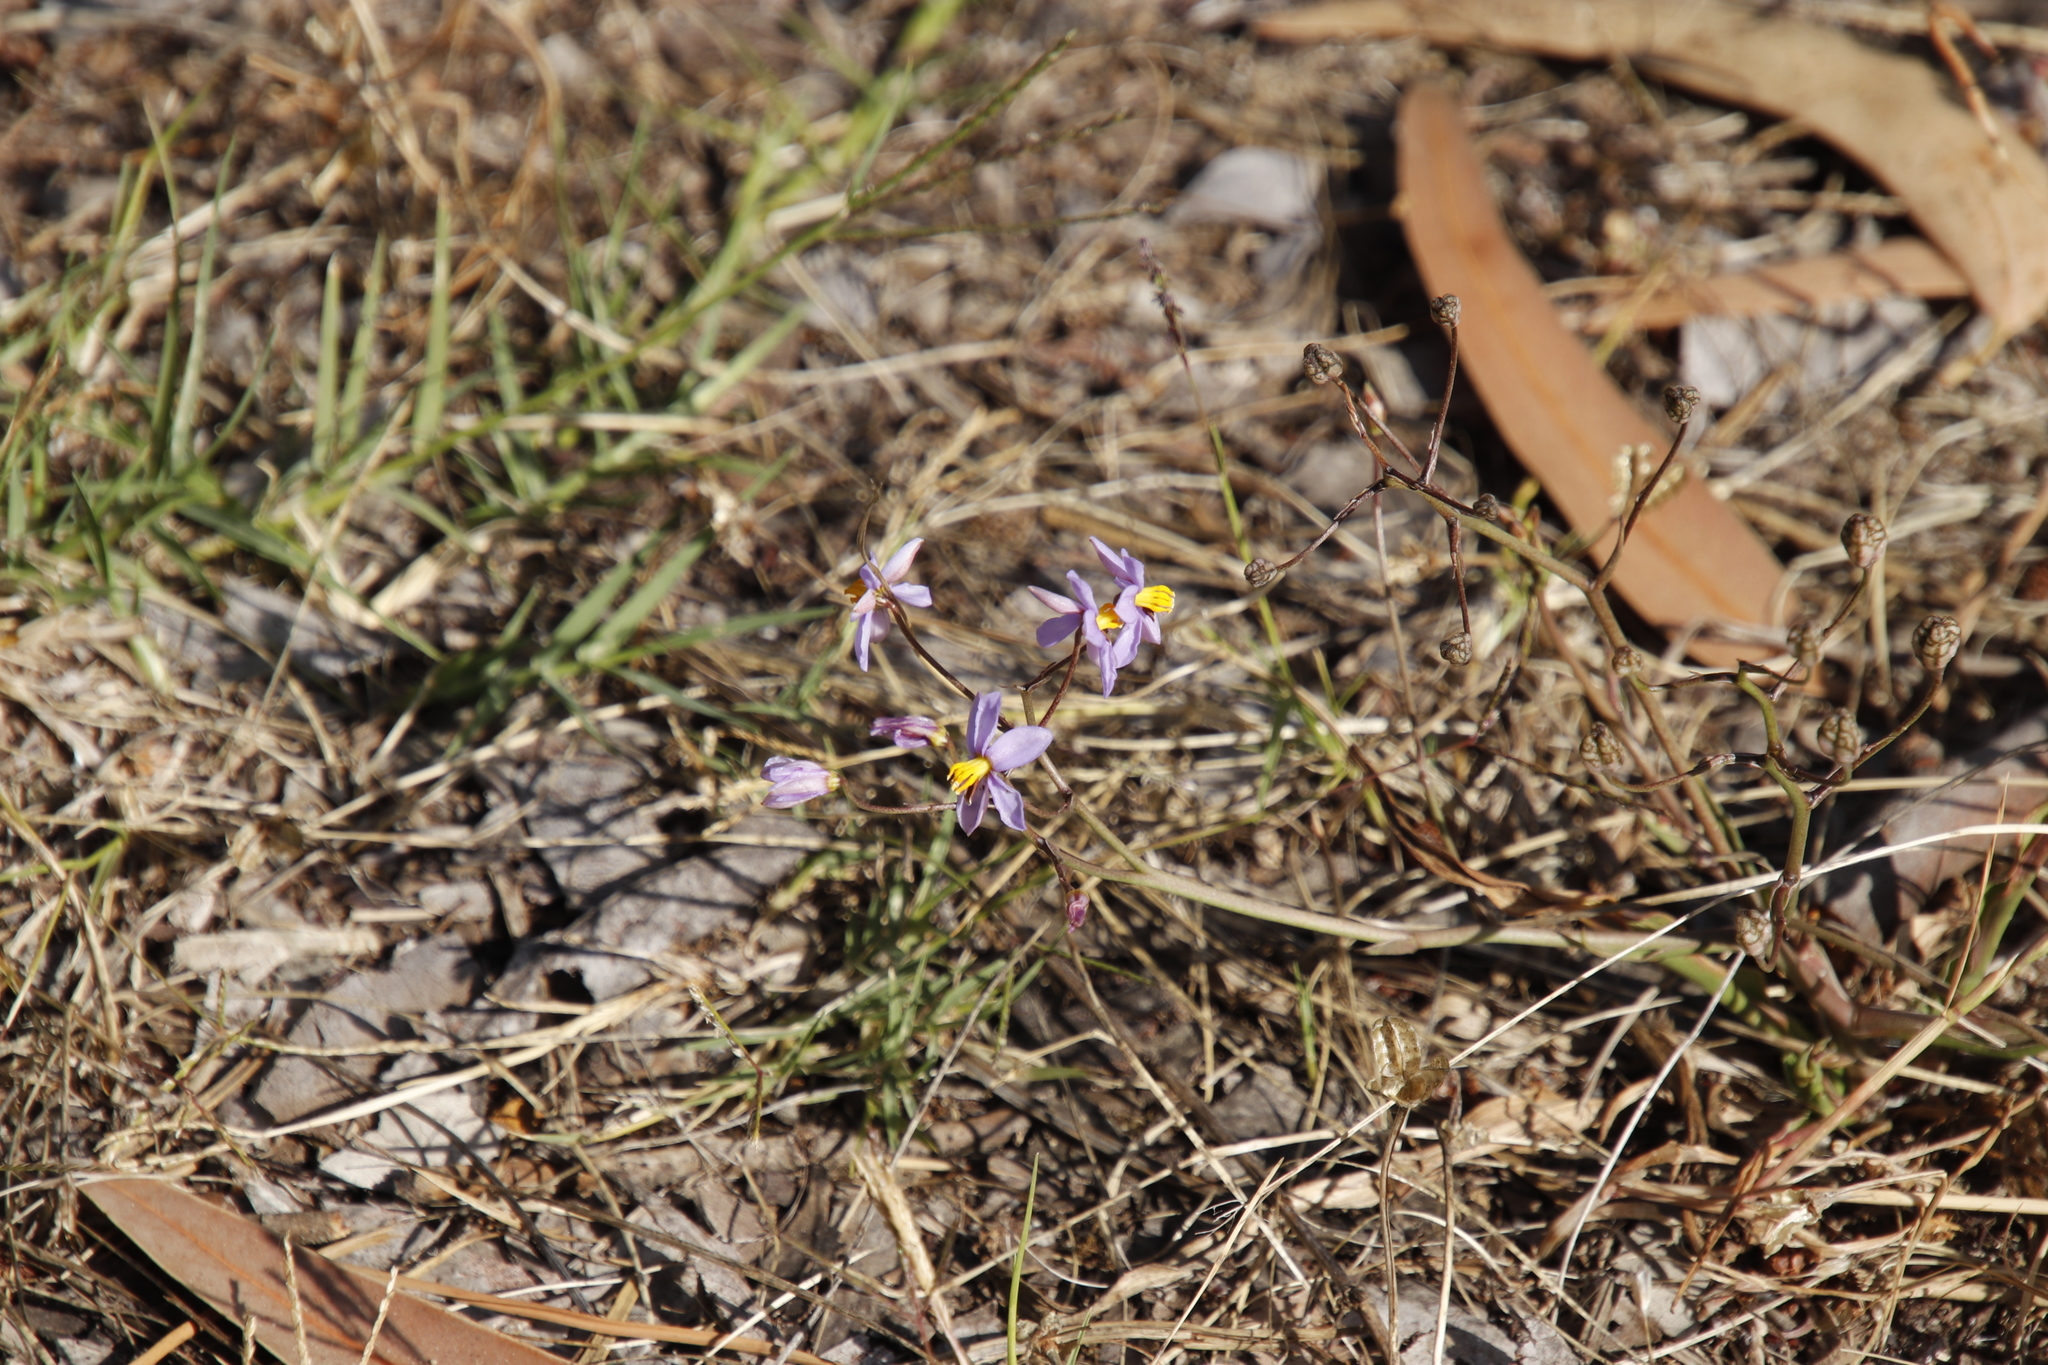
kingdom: Plantae
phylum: Tracheophyta
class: Liliopsida
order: Asparagales
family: Tecophilaeaceae
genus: Cyanella
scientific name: Cyanella hyacinthoides
